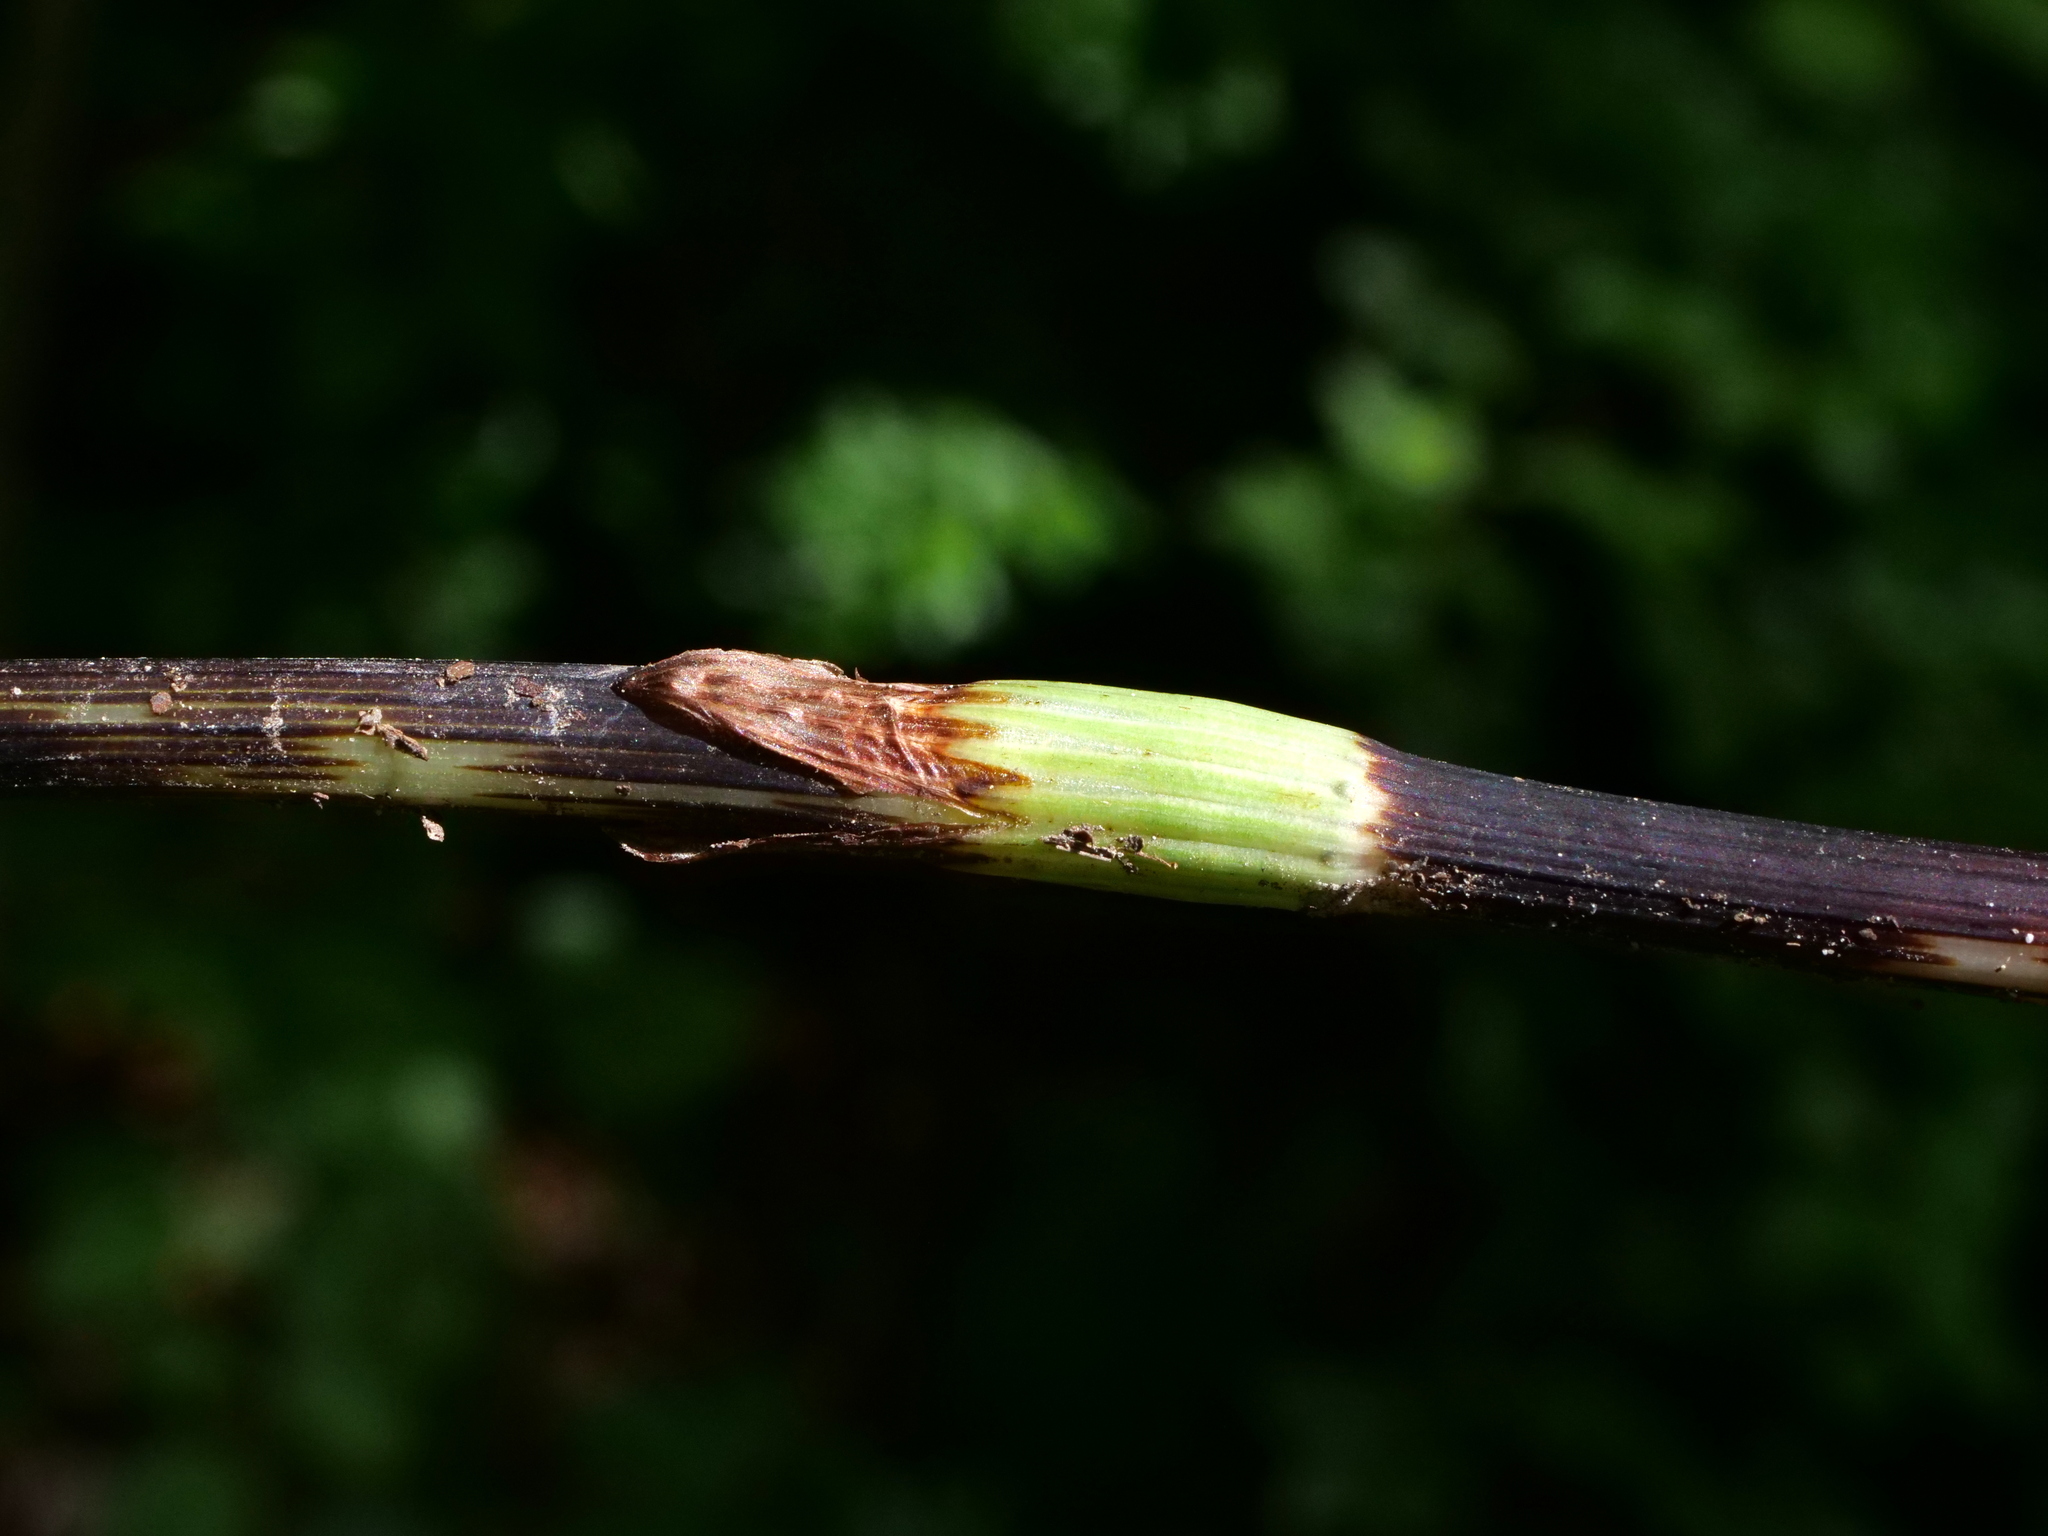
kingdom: Plantae
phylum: Tracheophyta
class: Polypodiopsida
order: Equisetales
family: Equisetaceae
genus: Equisetum
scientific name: Equisetum sylvaticum
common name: Wood horsetail
